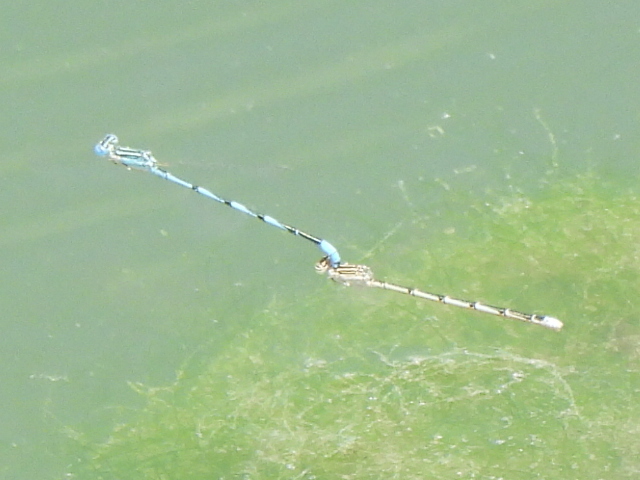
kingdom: Animalia
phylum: Arthropoda
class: Insecta
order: Odonata
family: Coenagrionidae
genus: Enallagma
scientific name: Enallagma basidens
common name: Double-striped bluet
